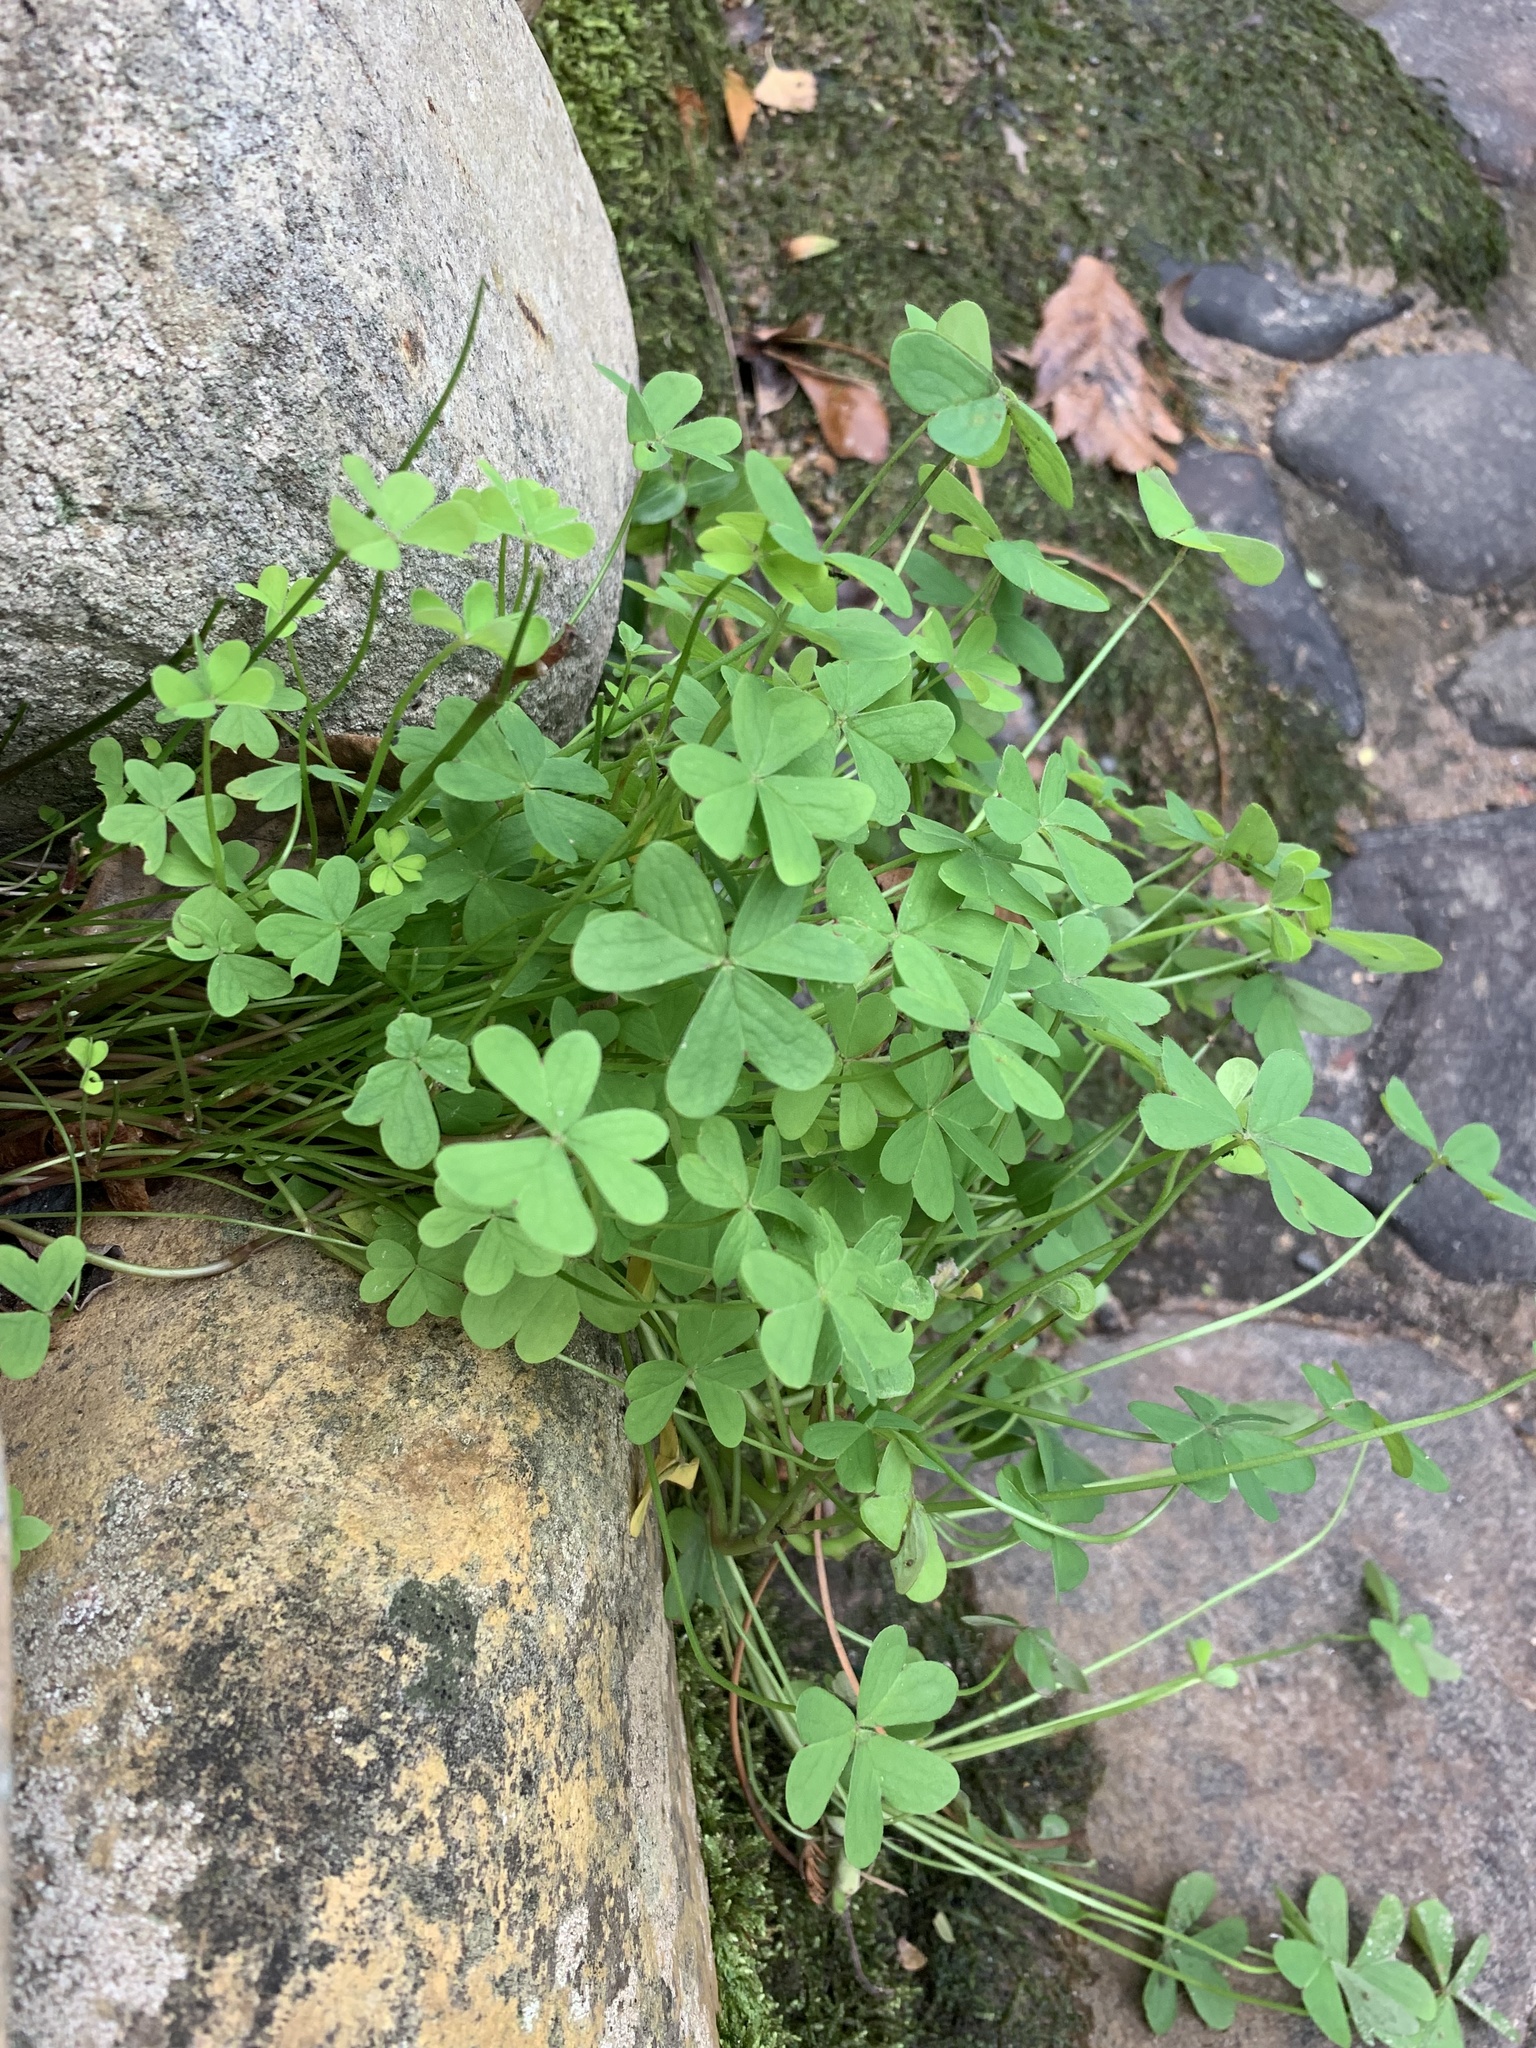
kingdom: Plantae
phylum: Tracheophyta
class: Magnoliopsida
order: Oxalidales
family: Oxalidaceae
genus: Oxalis
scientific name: Oxalis pes-caprae
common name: Bermuda-buttercup
